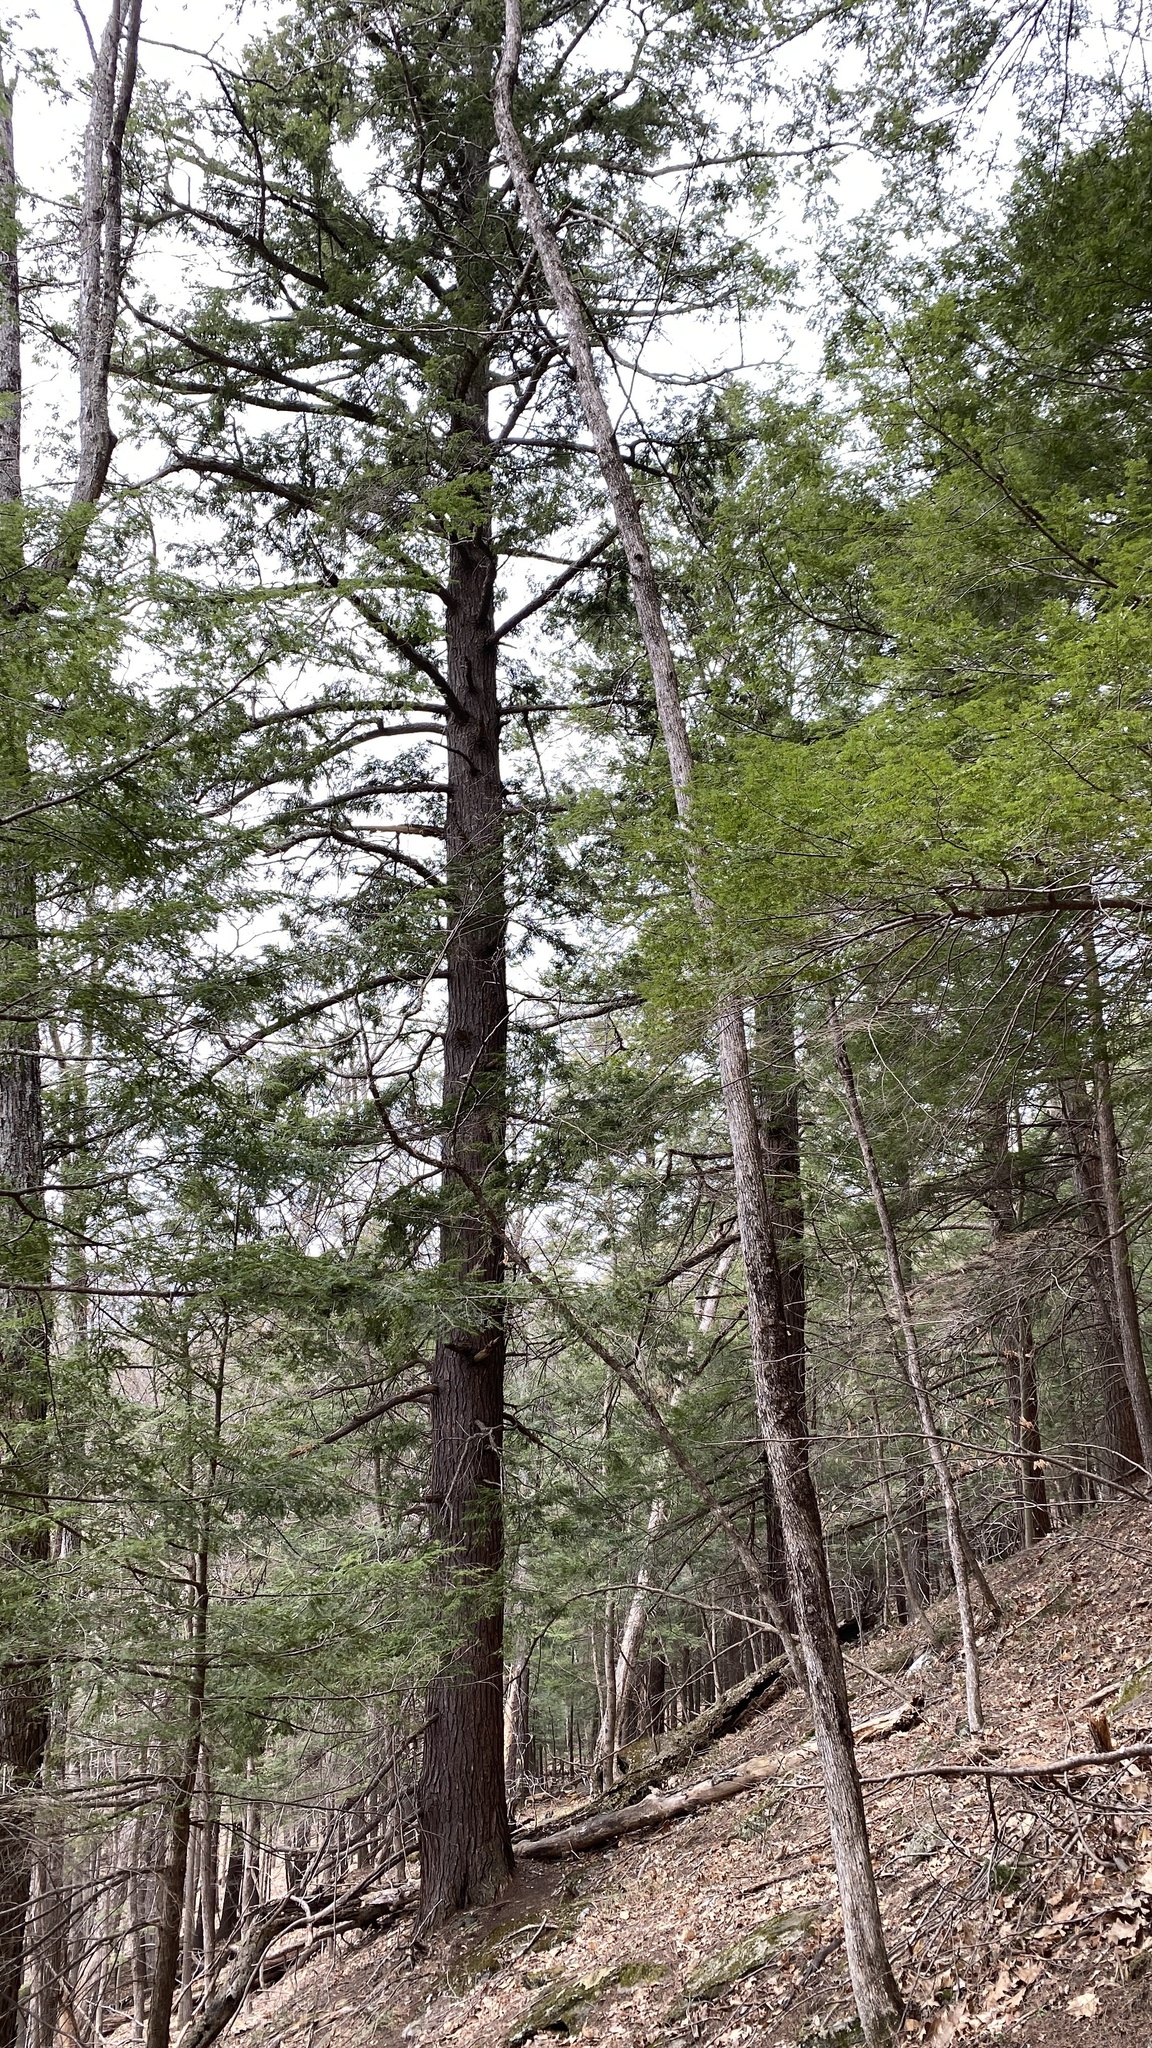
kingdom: Plantae
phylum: Tracheophyta
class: Pinopsida
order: Pinales
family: Pinaceae
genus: Tsuga
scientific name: Tsuga canadensis
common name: Eastern hemlock
